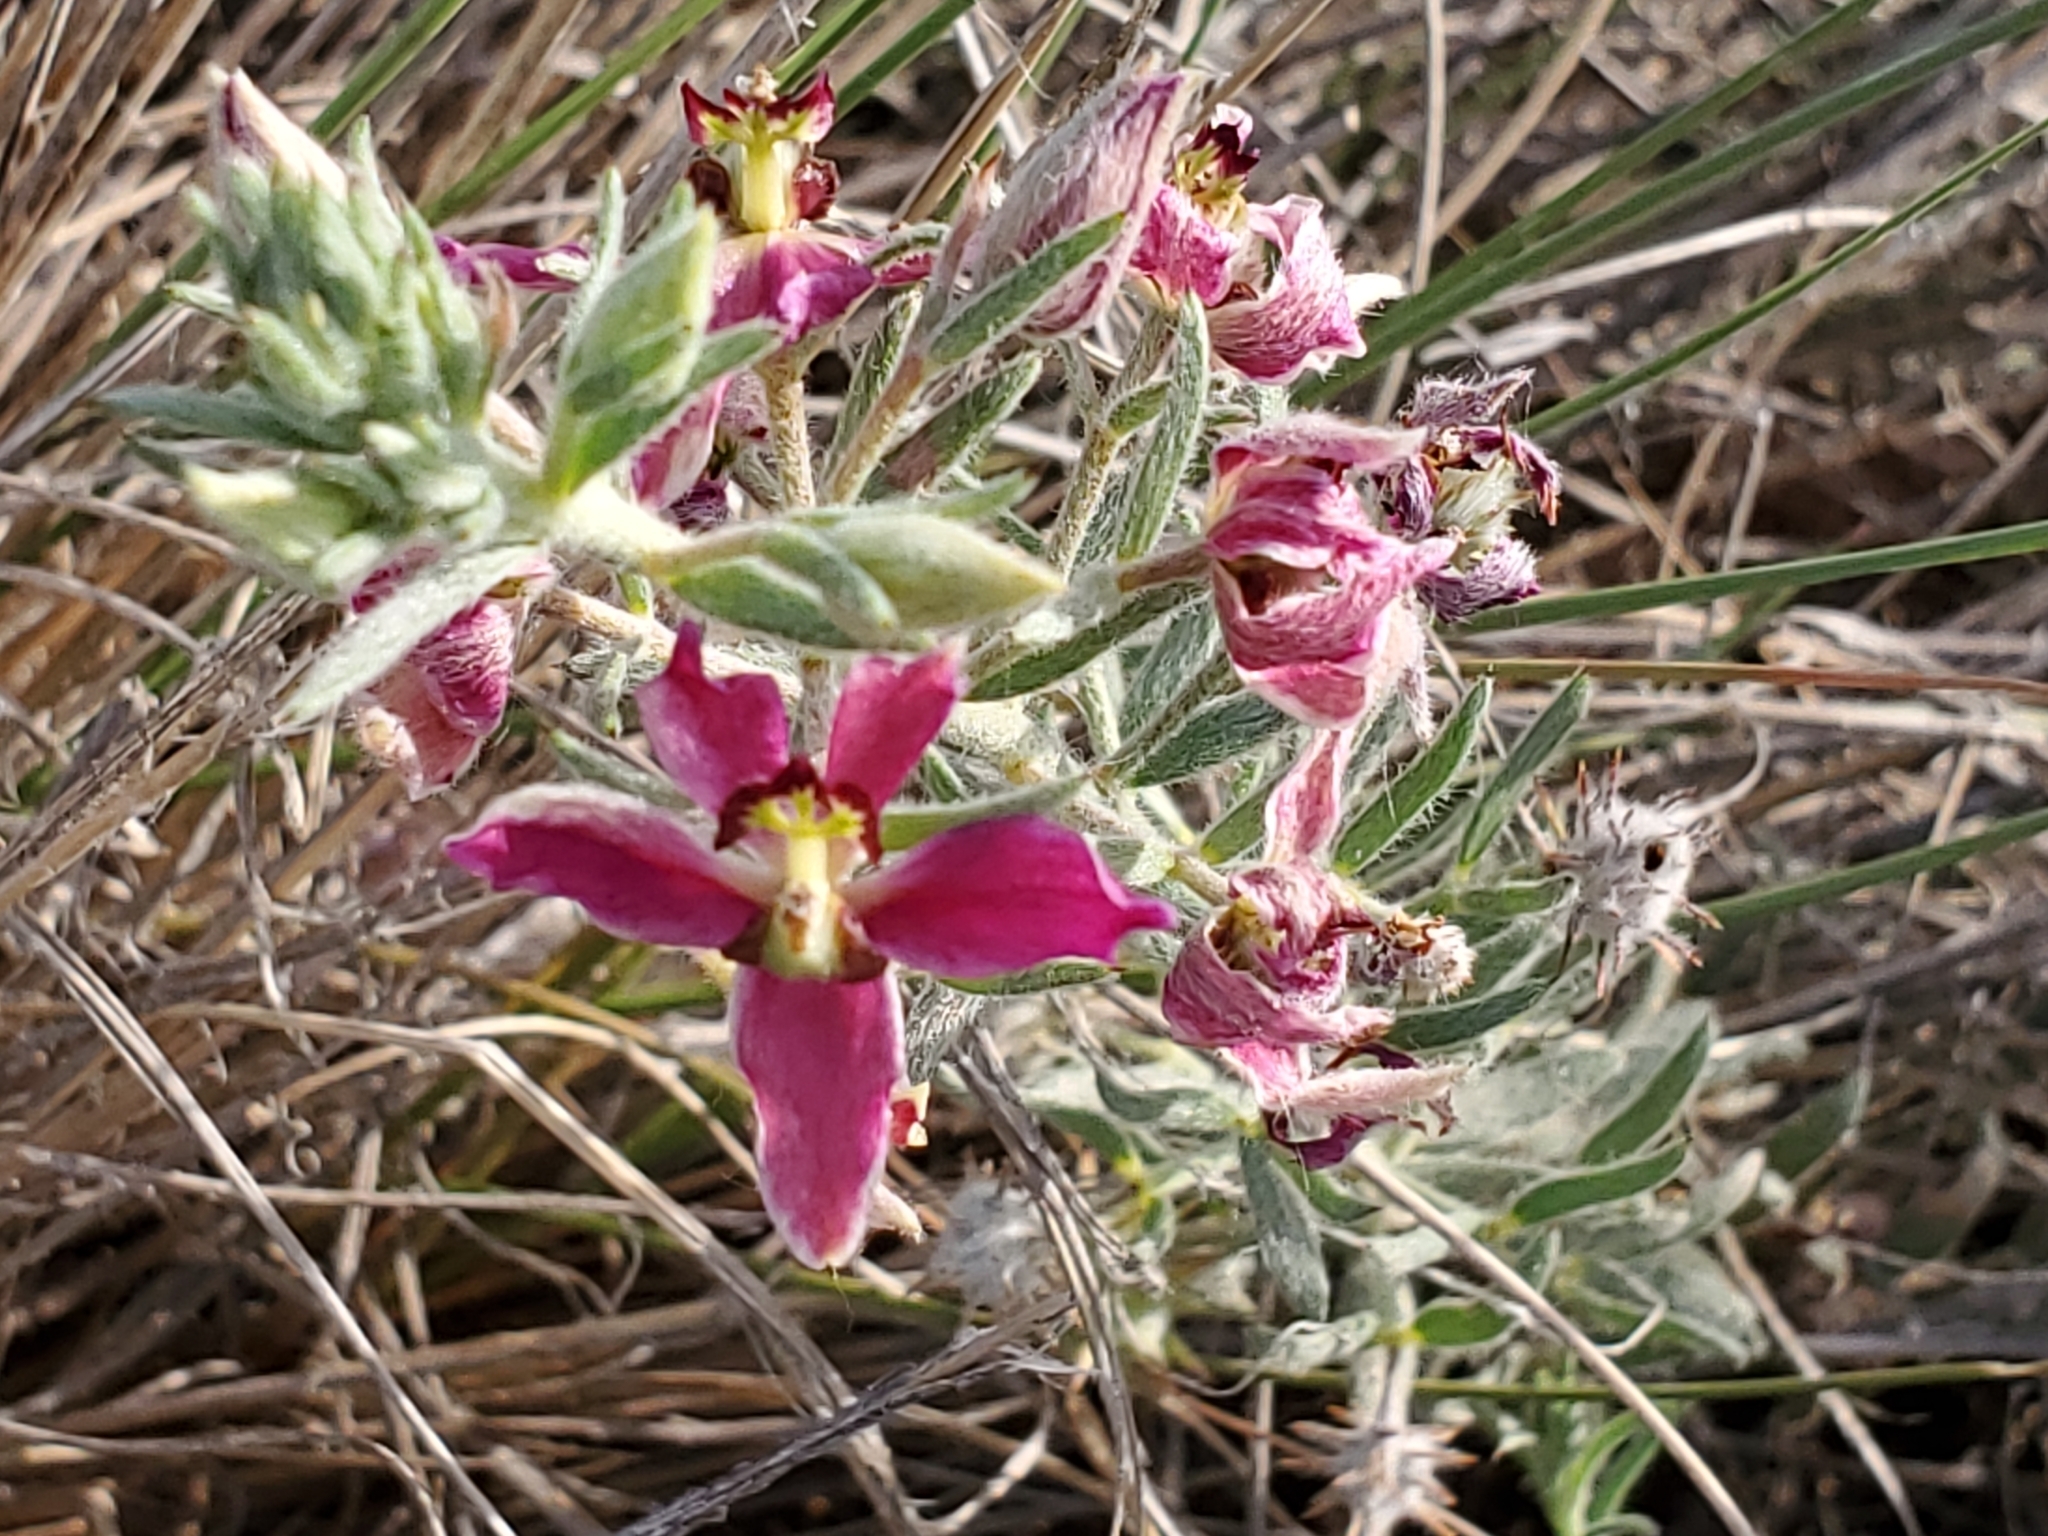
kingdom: Plantae
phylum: Tracheophyta
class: Magnoliopsida
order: Zygophyllales
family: Krameriaceae
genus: Krameria
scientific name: Krameria lanceolata
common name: Ratany
